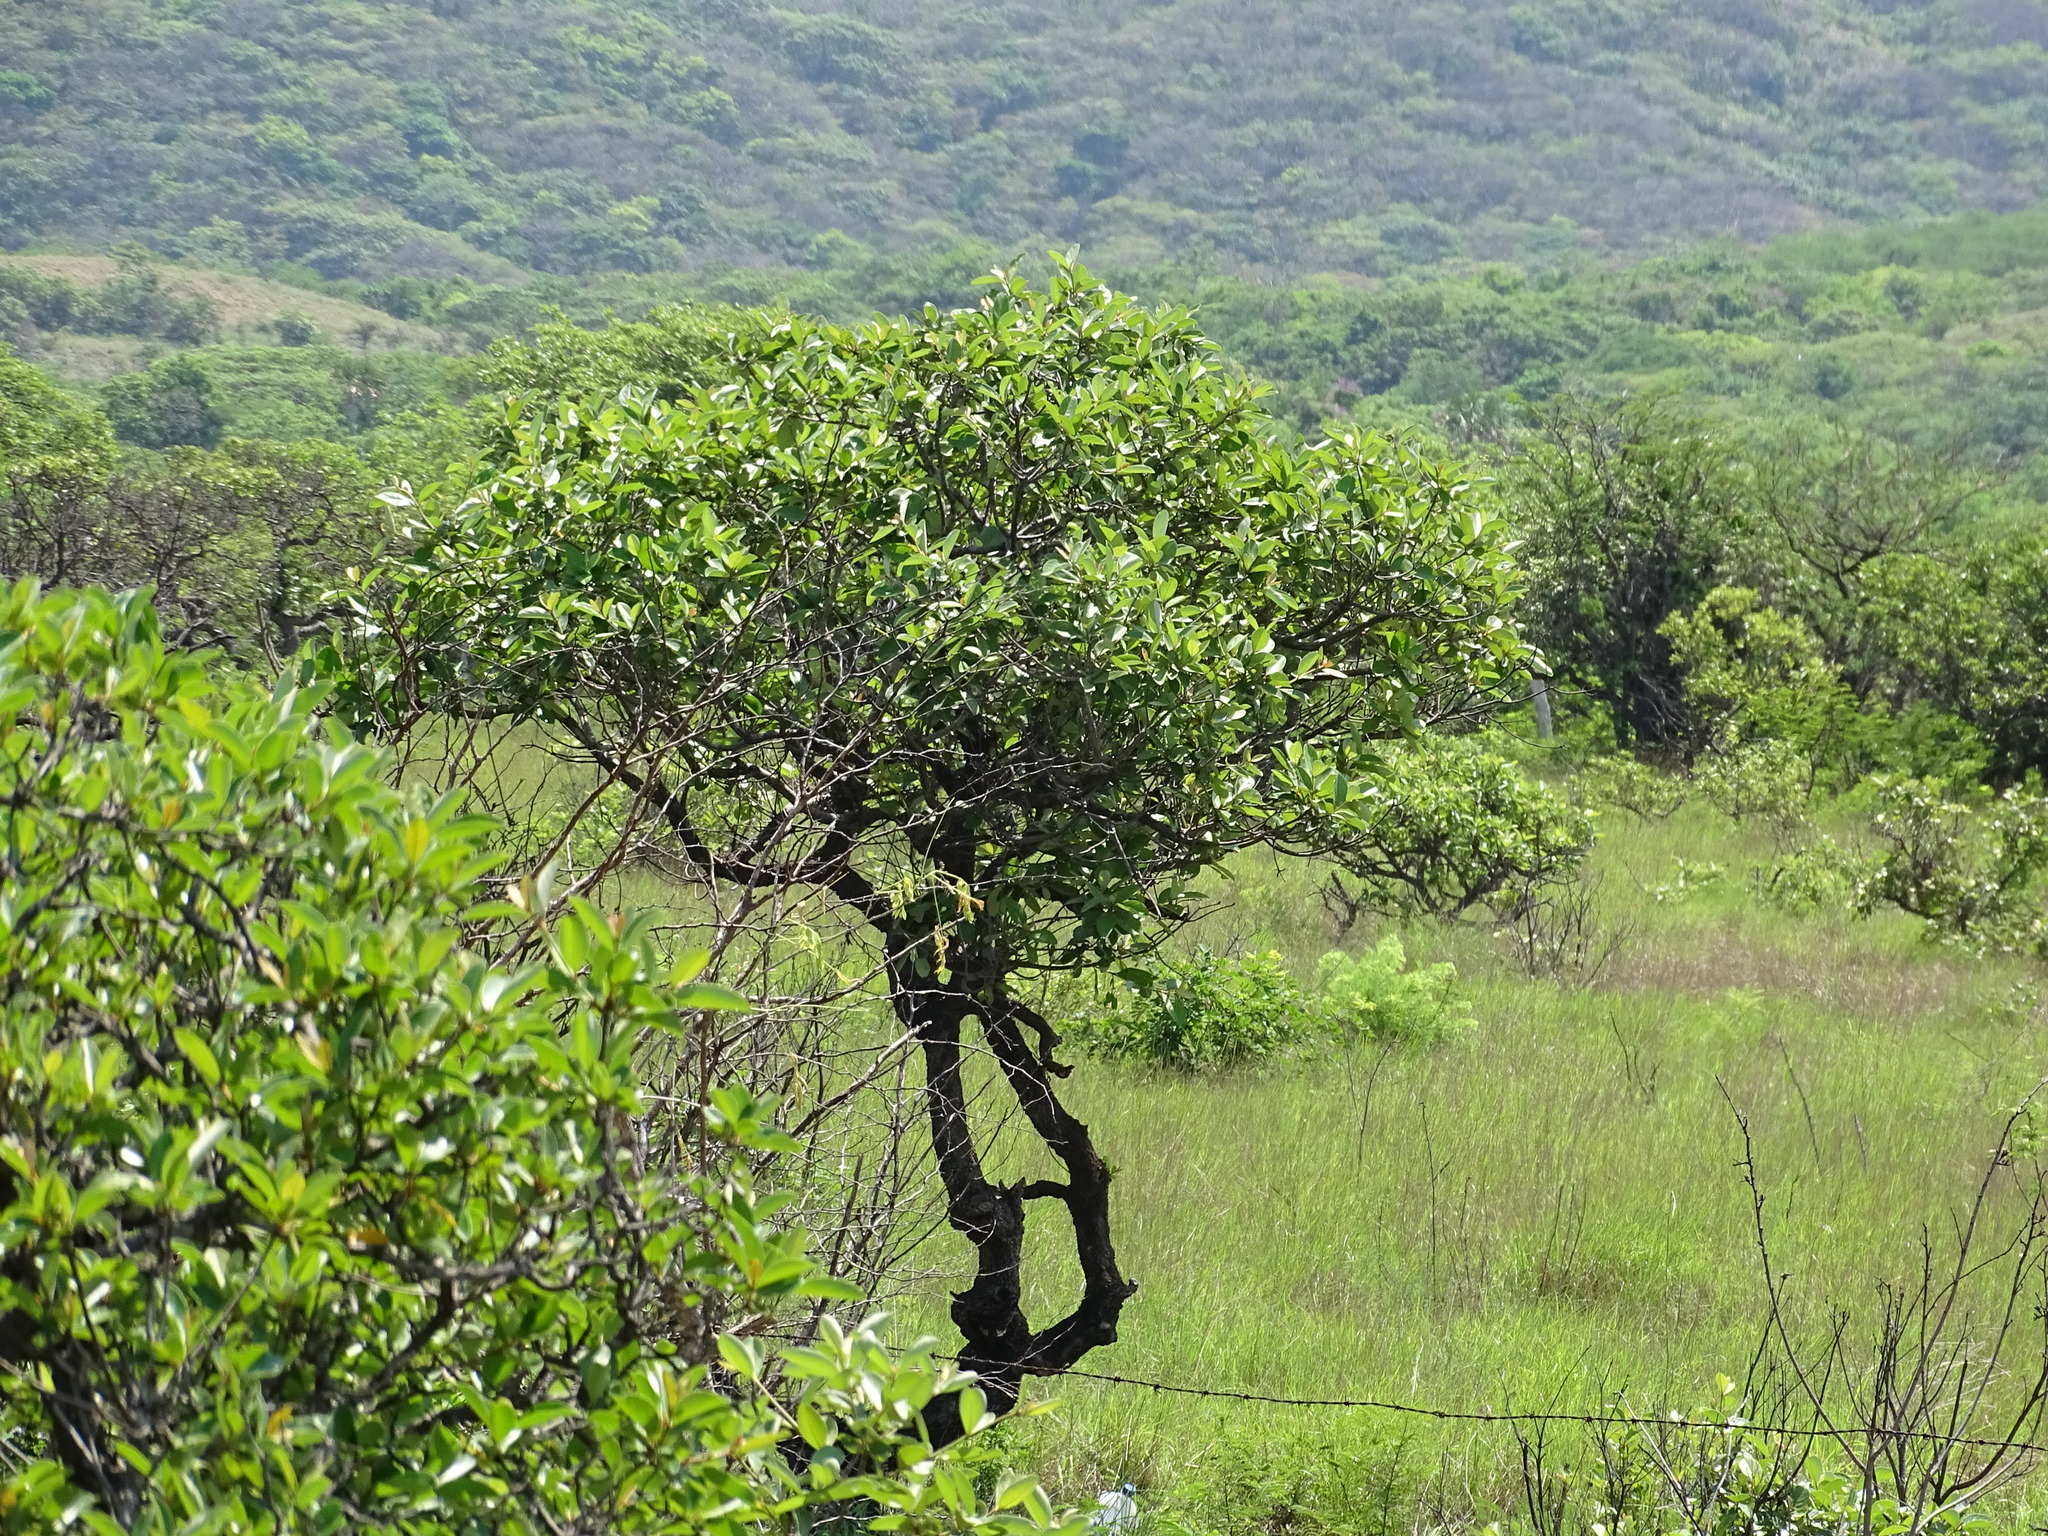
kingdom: Plantae
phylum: Tracheophyta
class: Magnoliopsida
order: Malpighiales
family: Malpighiaceae
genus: Byrsonima
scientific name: Byrsonima crassifolia
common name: Golden spoon
